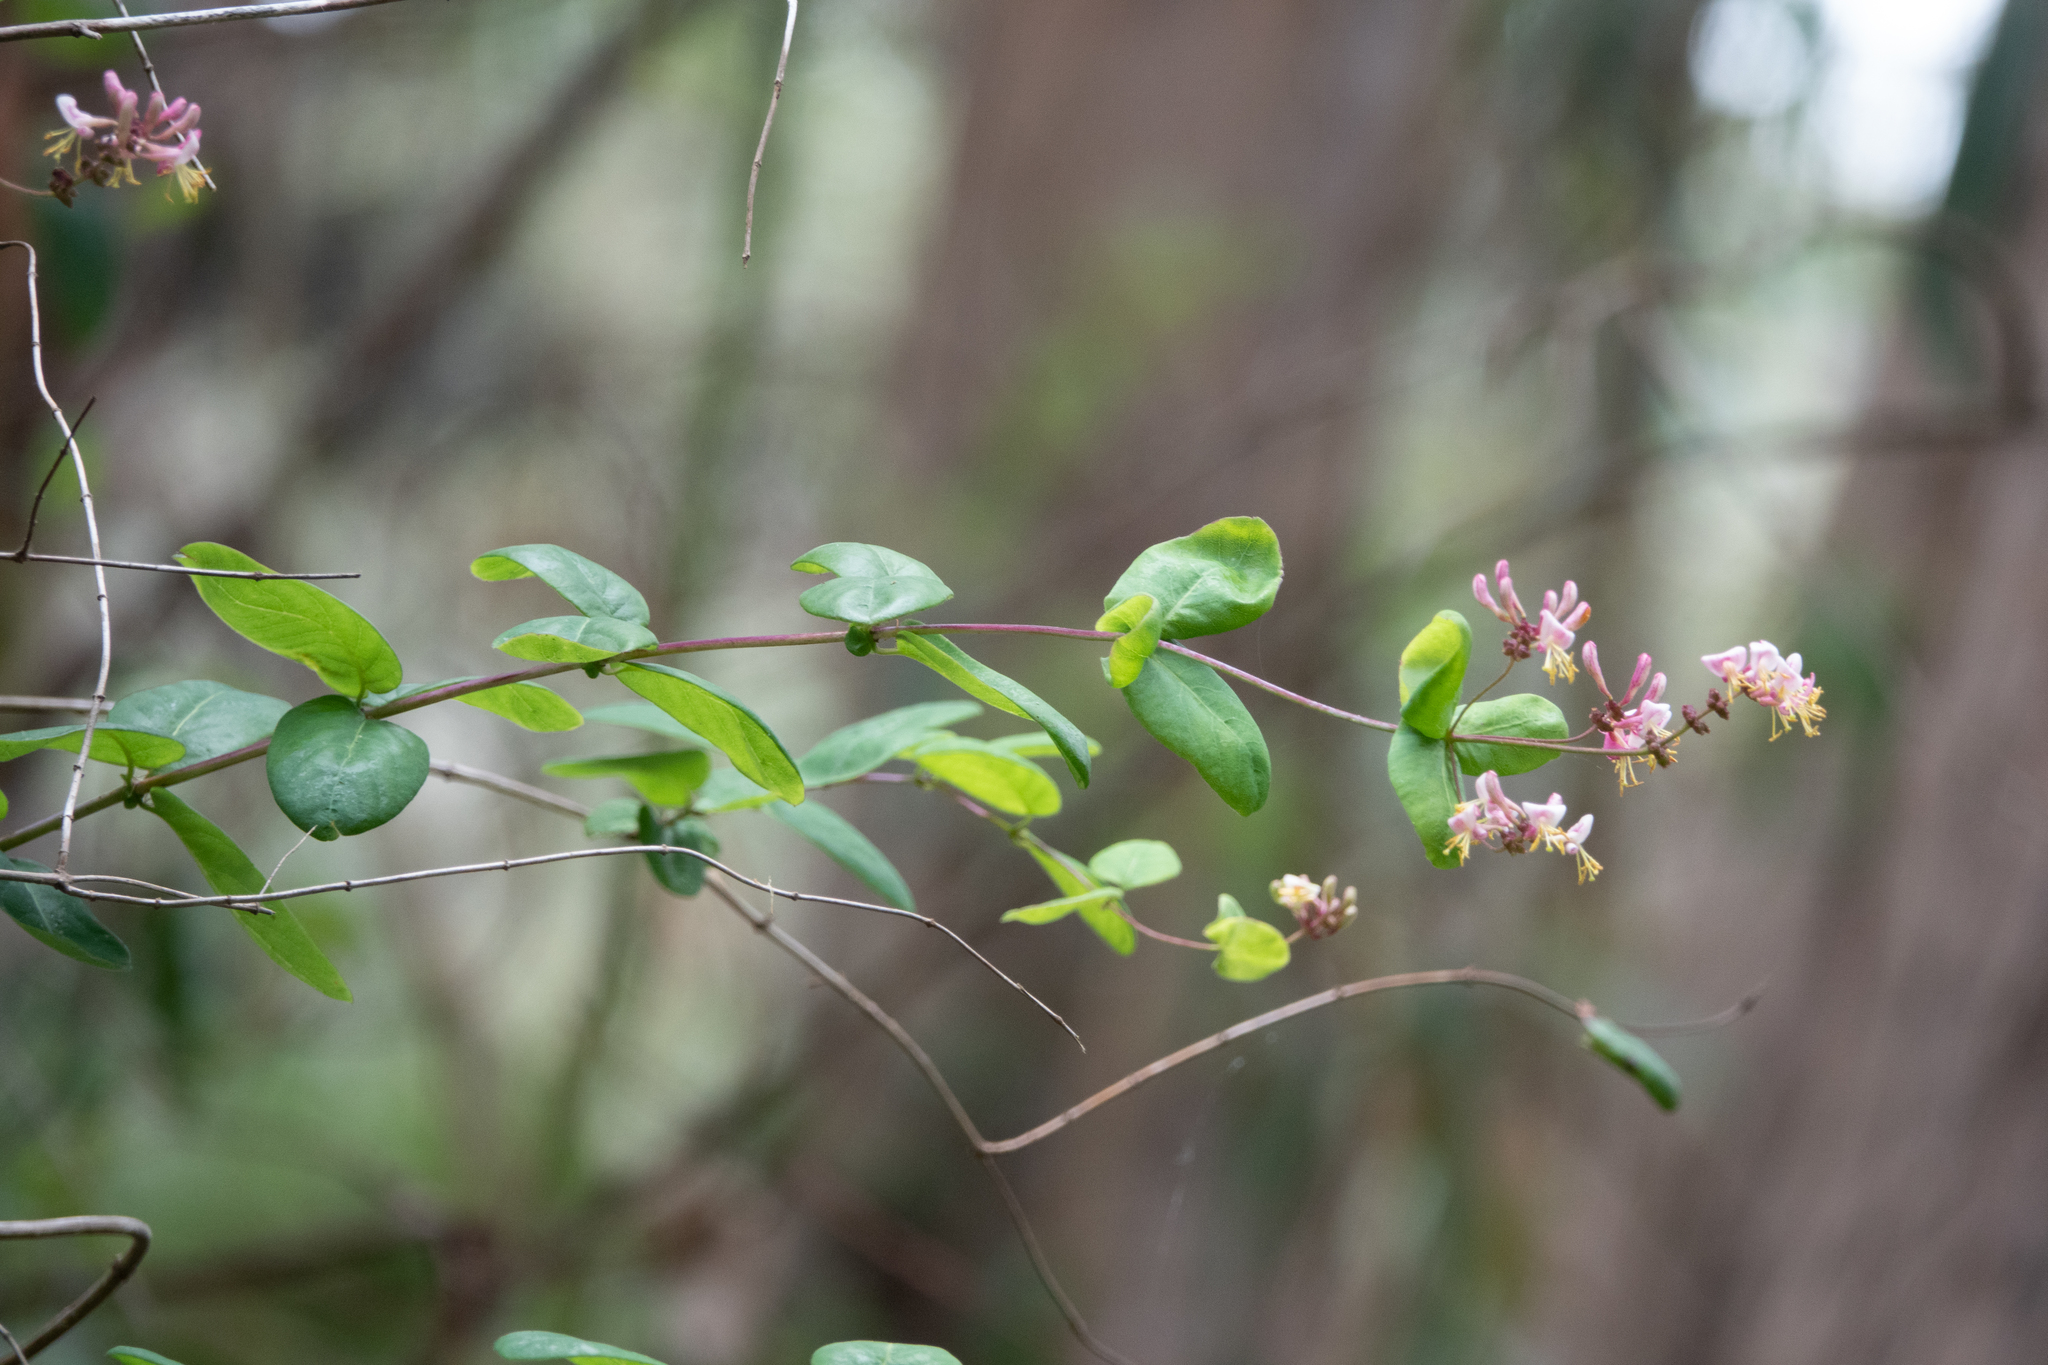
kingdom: Plantae
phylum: Tracheophyta
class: Magnoliopsida
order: Dipsacales
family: Caprifoliaceae
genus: Lonicera
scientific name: Lonicera hispidula
